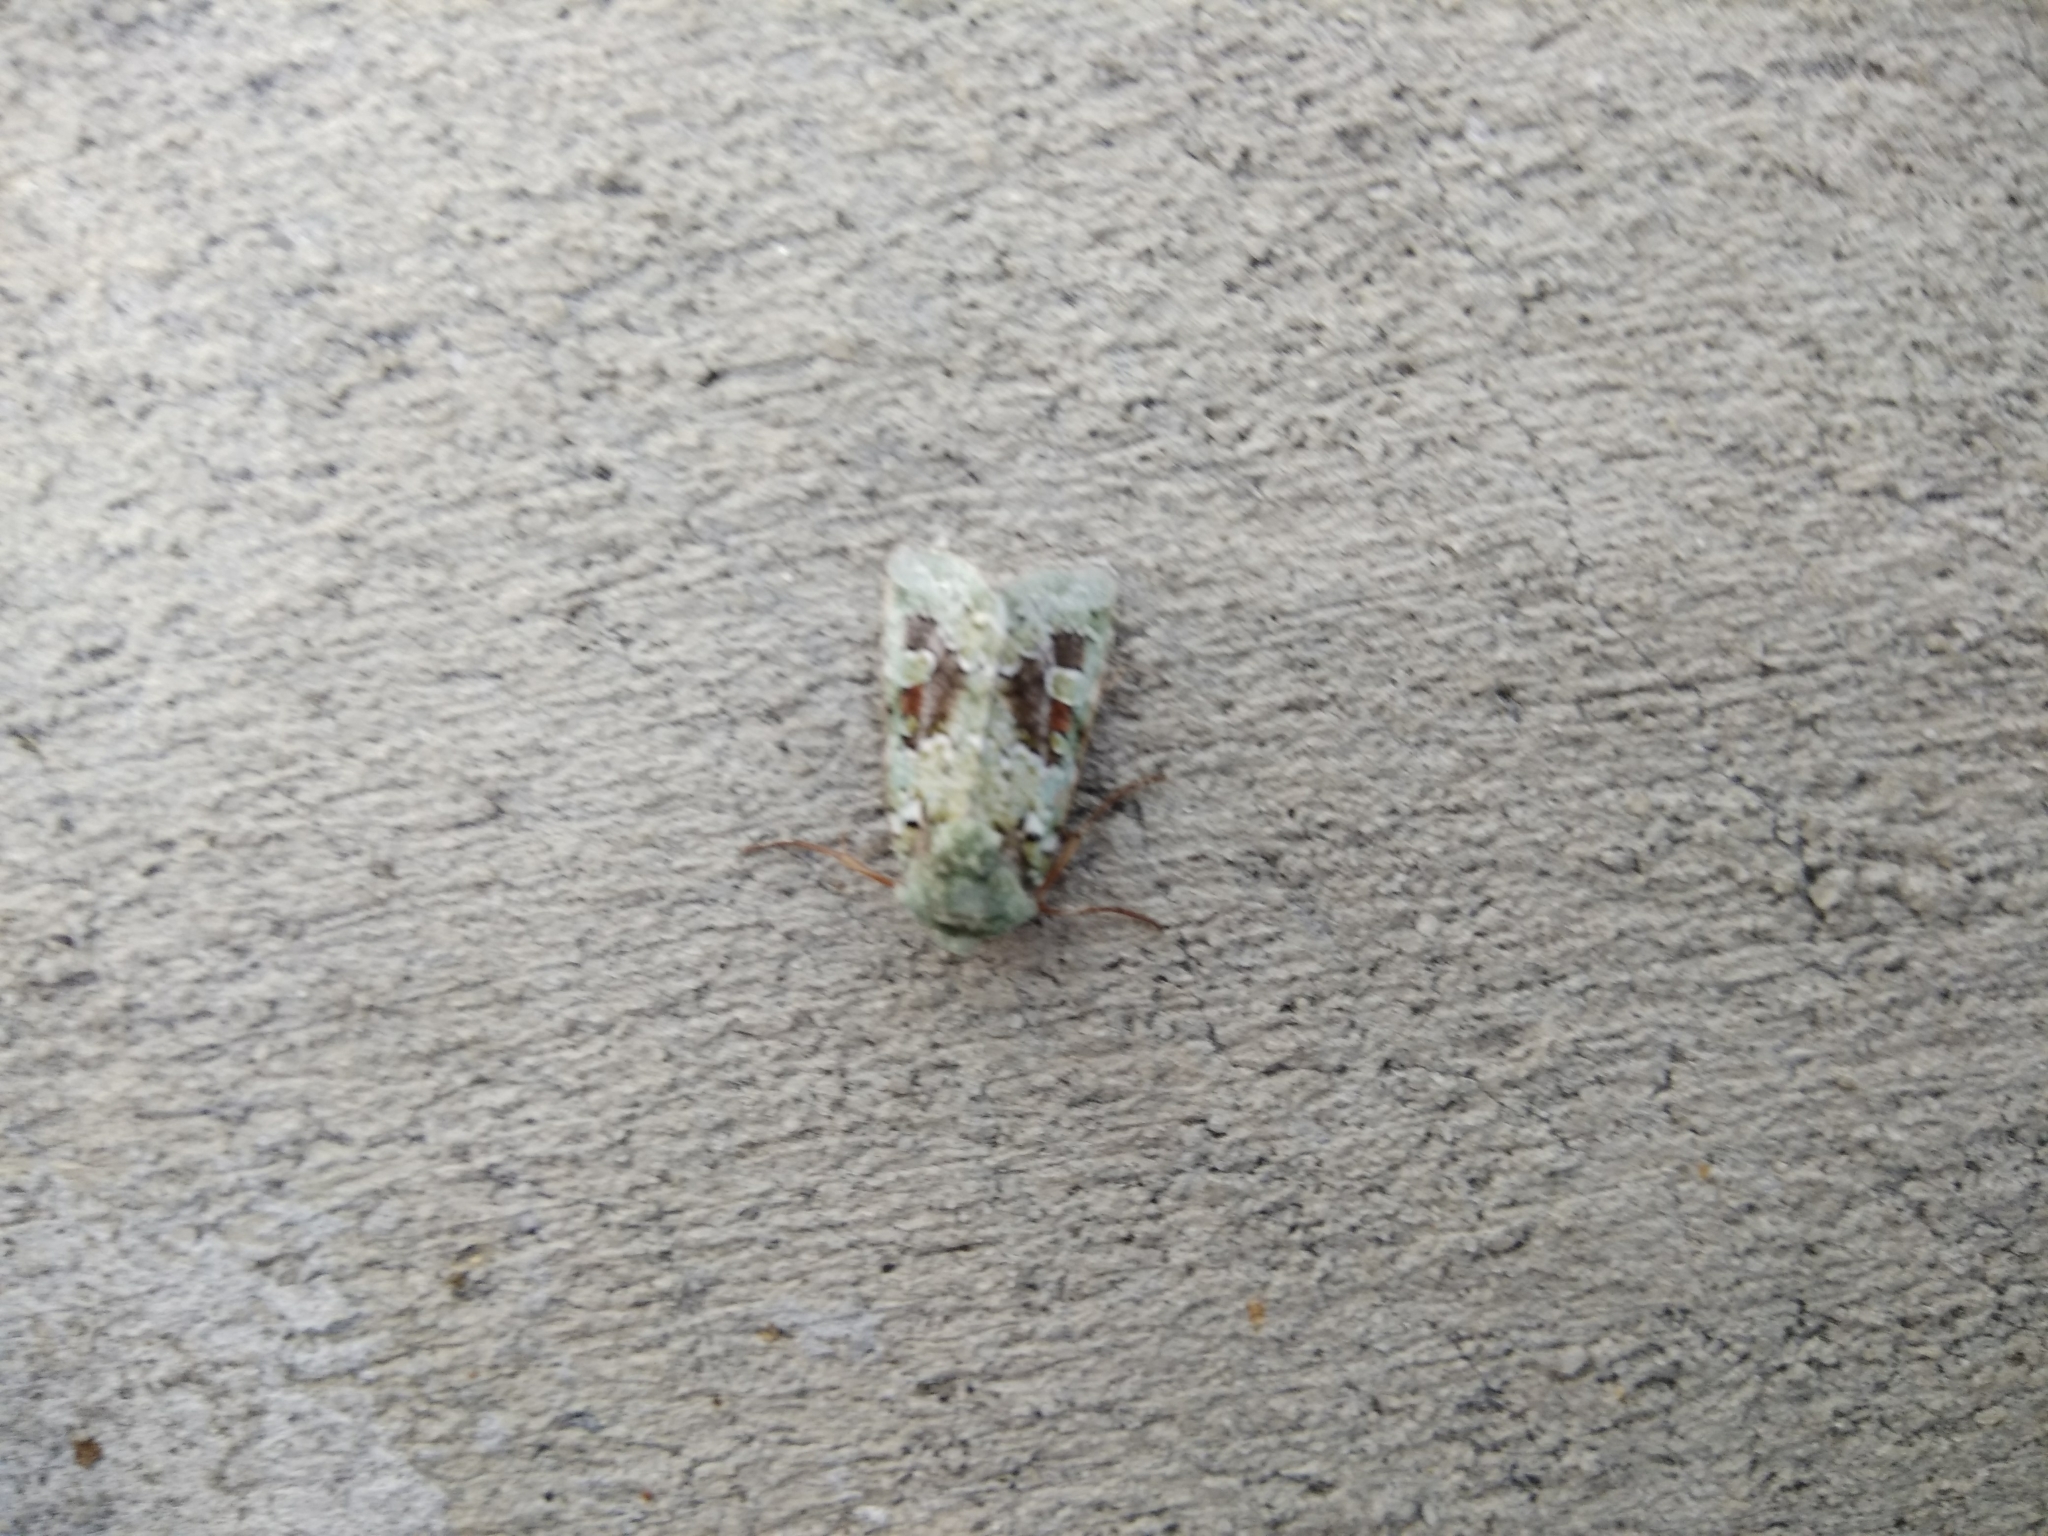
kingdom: Animalia
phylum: Arthropoda
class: Insecta
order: Lepidoptera
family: Noctuidae
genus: Lacinipolia
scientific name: Lacinipolia laudabilis
